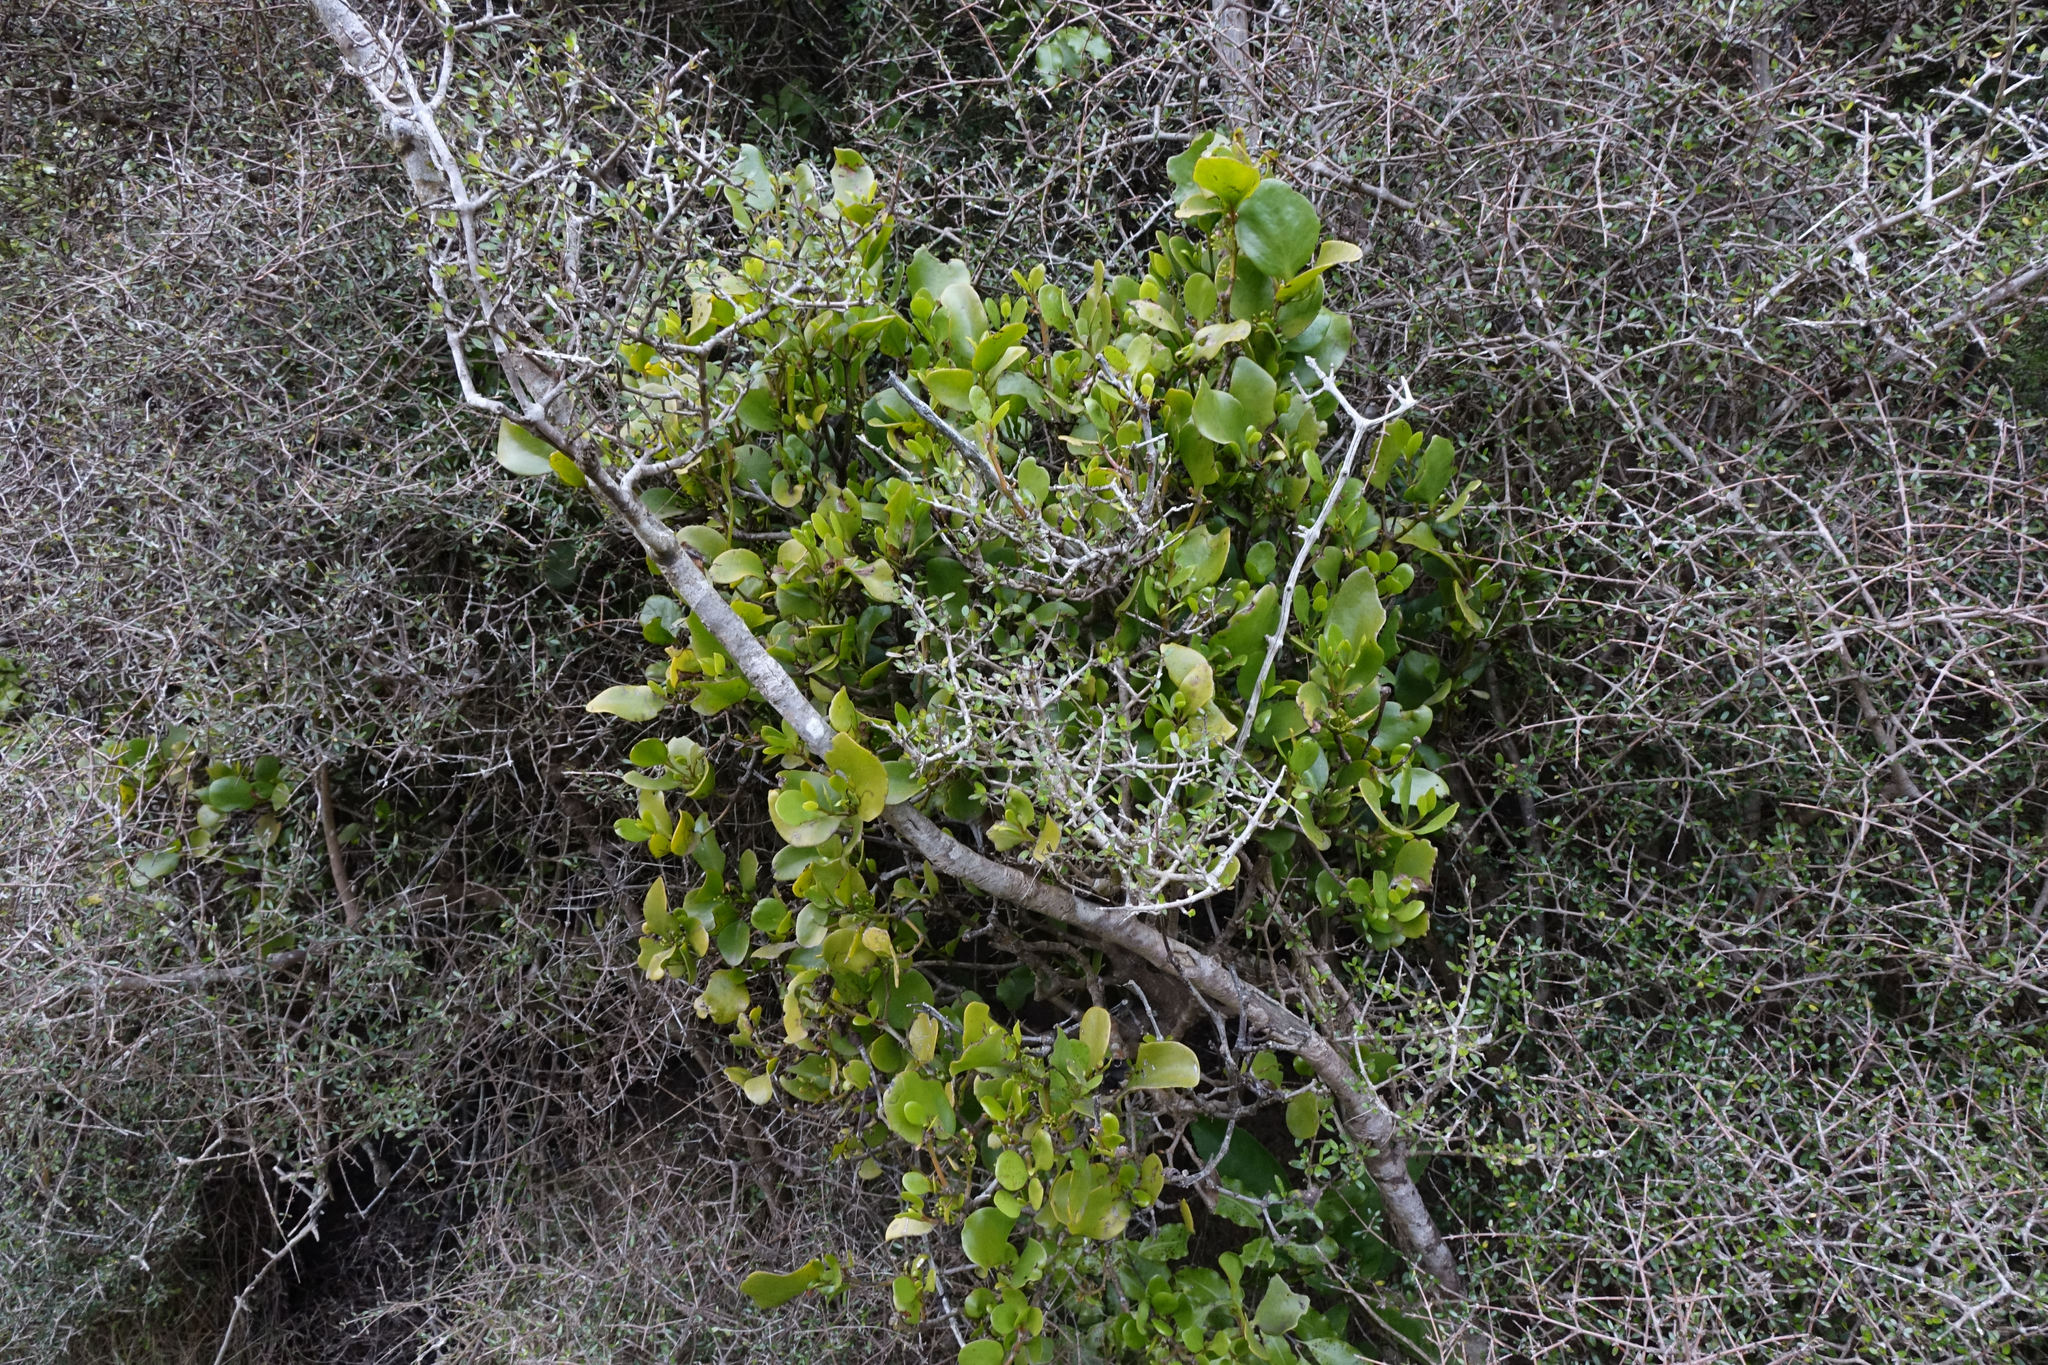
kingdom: Plantae
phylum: Tracheophyta
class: Magnoliopsida
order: Santalales
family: Loranthaceae
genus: Ileostylus
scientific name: Ileostylus micranthus
